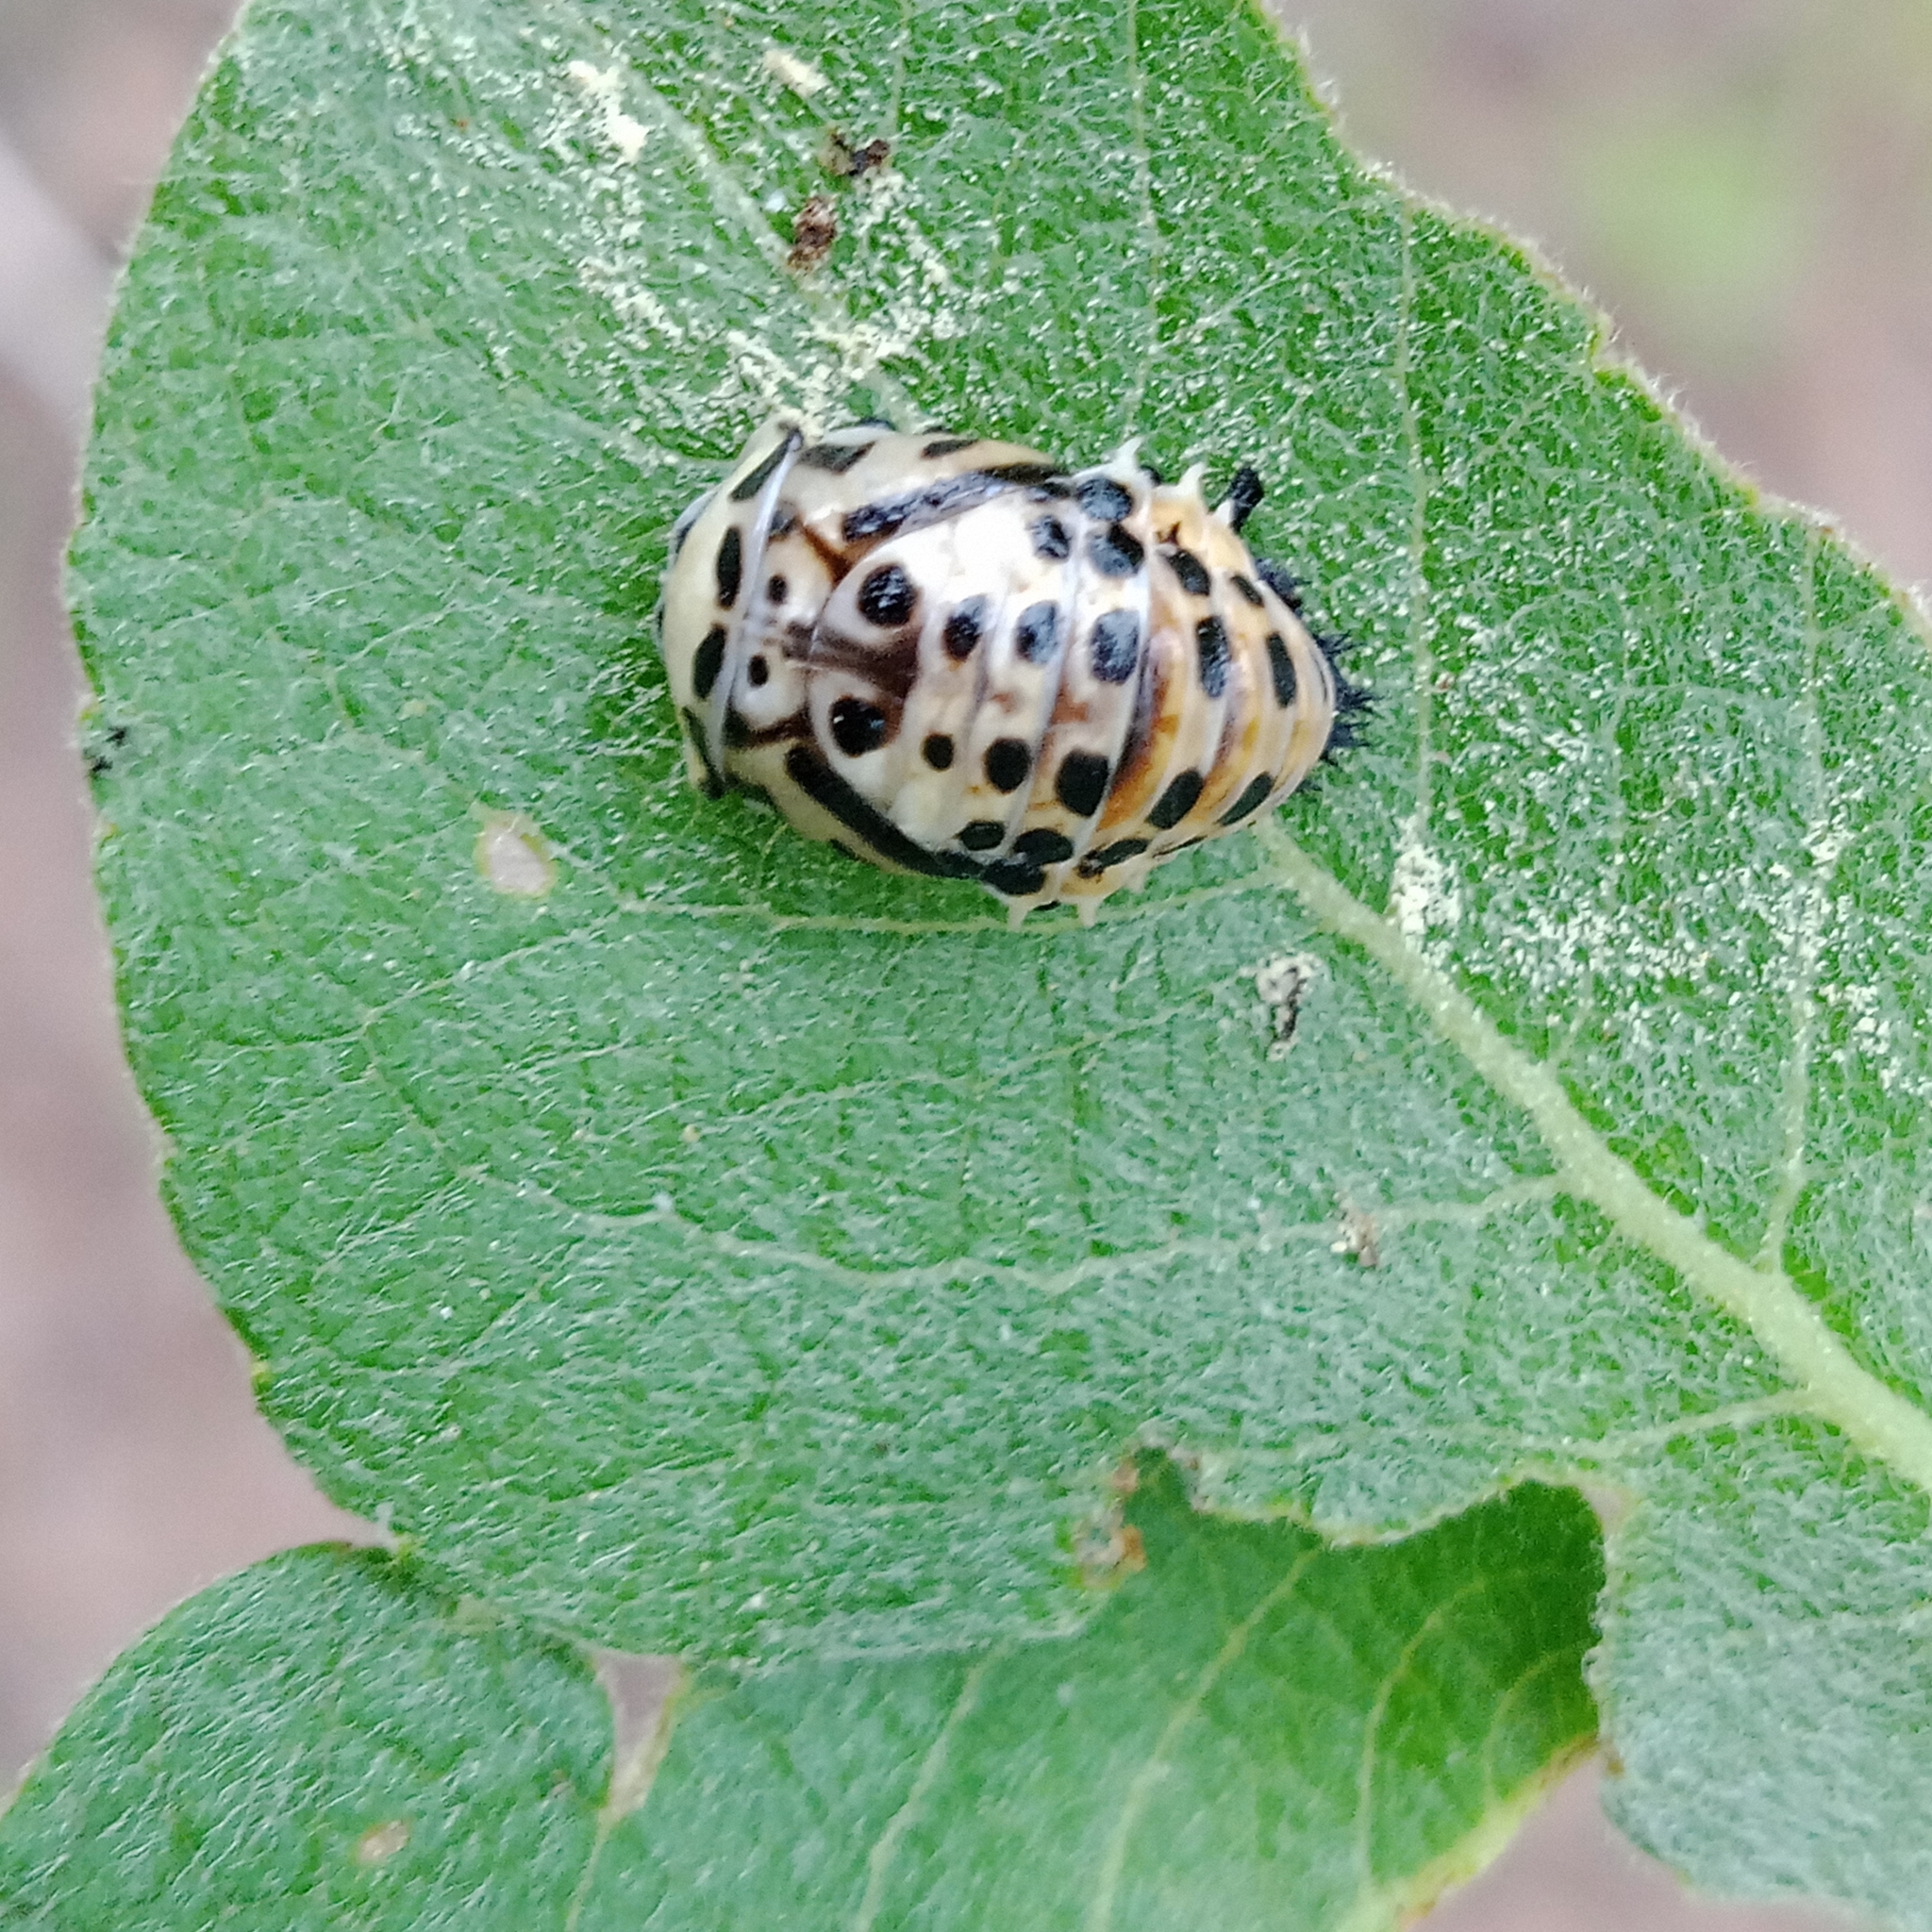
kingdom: Animalia
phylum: Arthropoda
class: Insecta
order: Coleoptera
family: Coccinellidae
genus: Anatis
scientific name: Anatis ocellata
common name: Eyed ladybird
